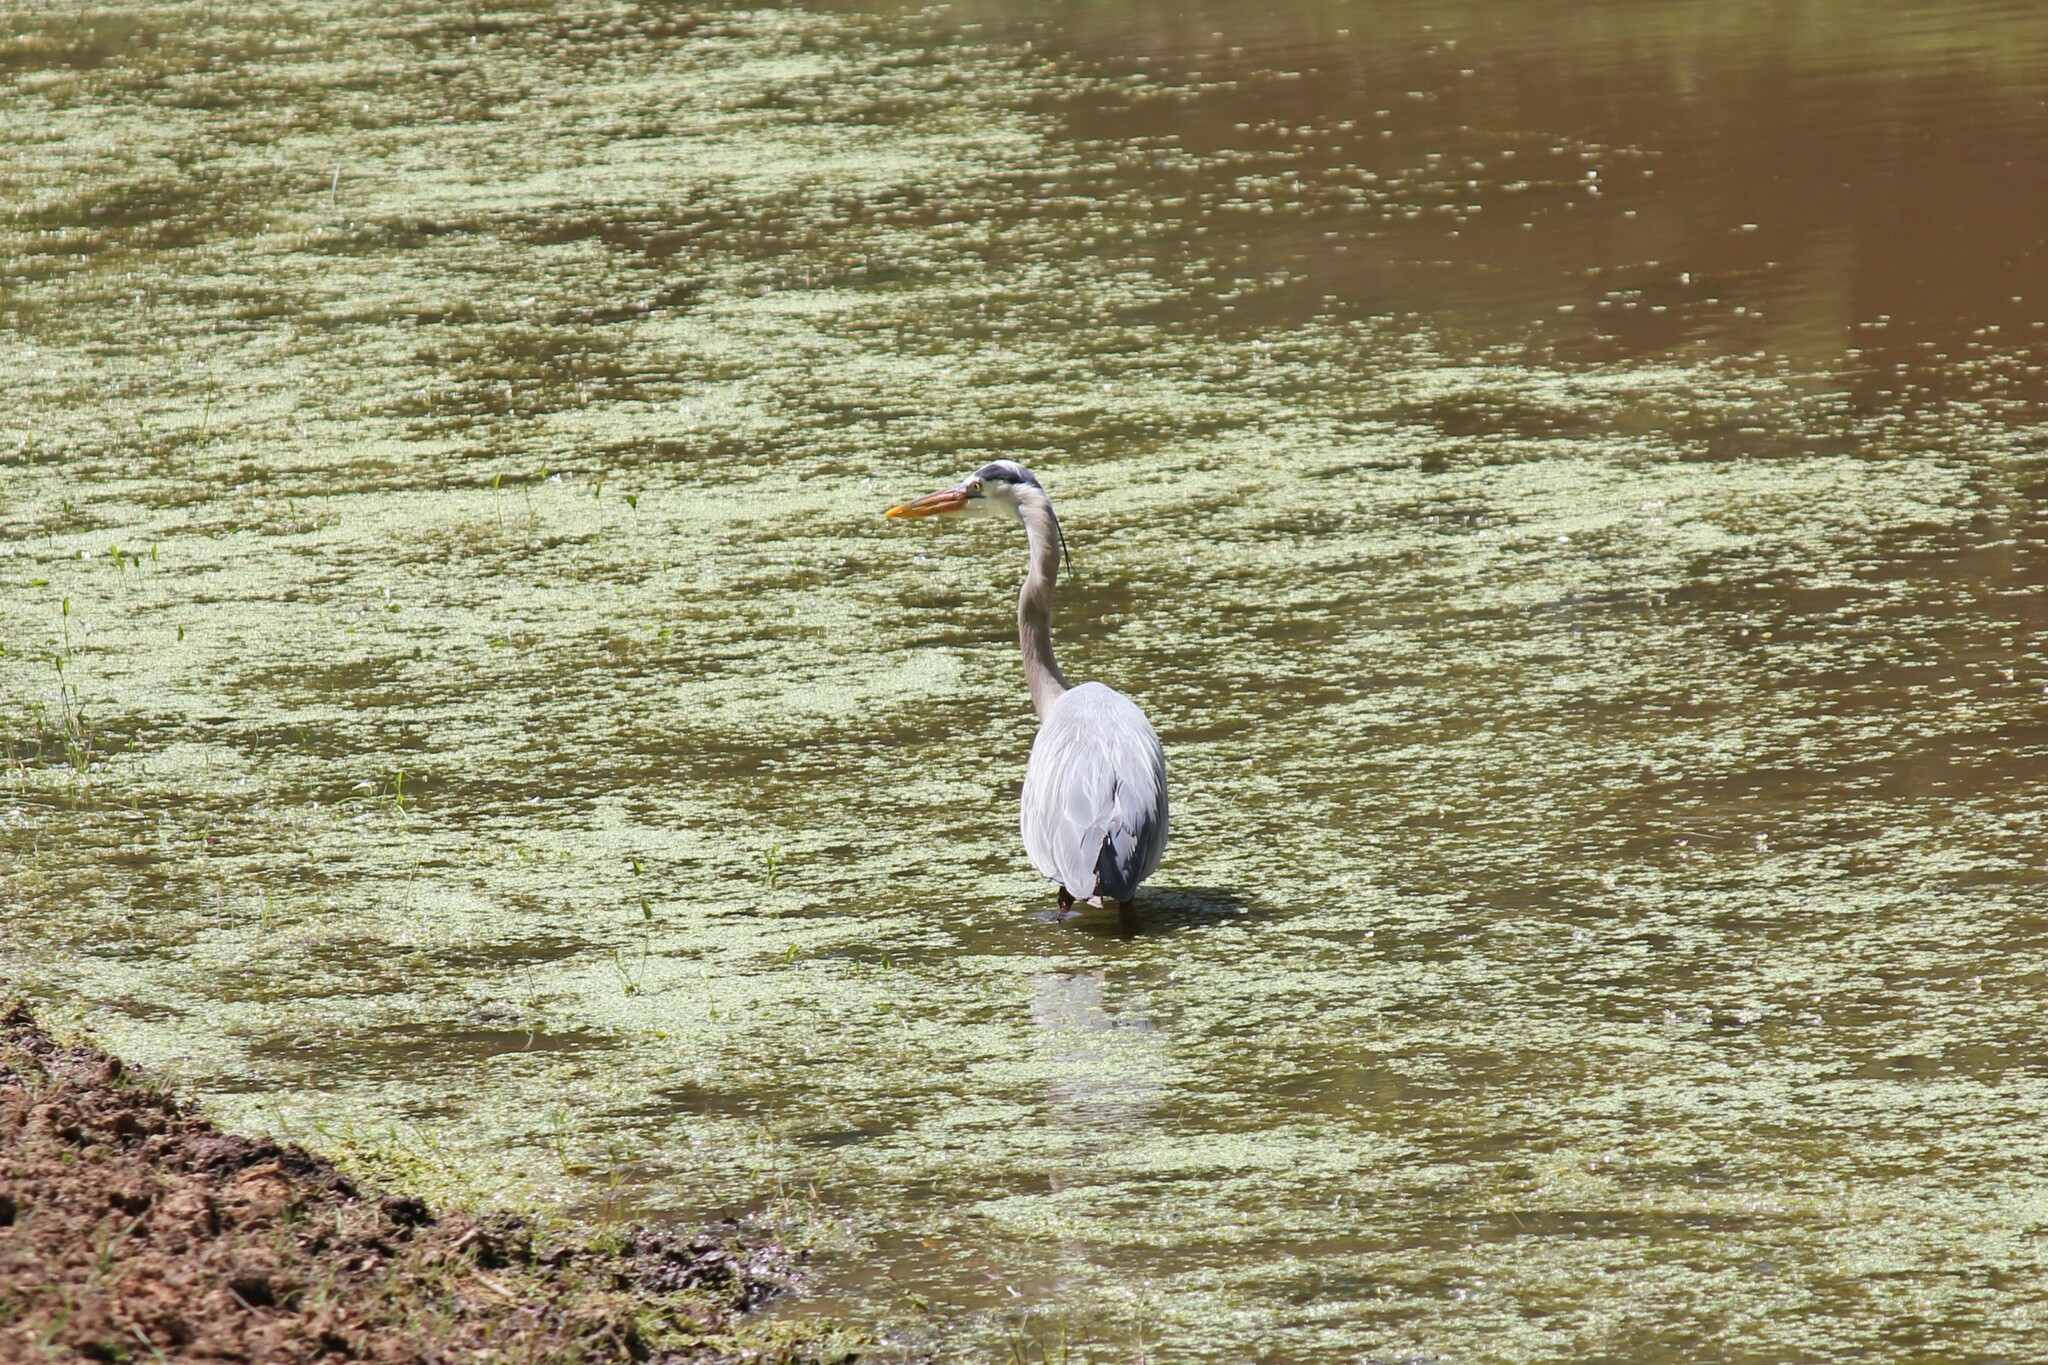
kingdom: Animalia
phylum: Chordata
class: Aves
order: Pelecaniformes
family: Ardeidae
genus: Ardea
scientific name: Ardea herodias
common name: Great blue heron
